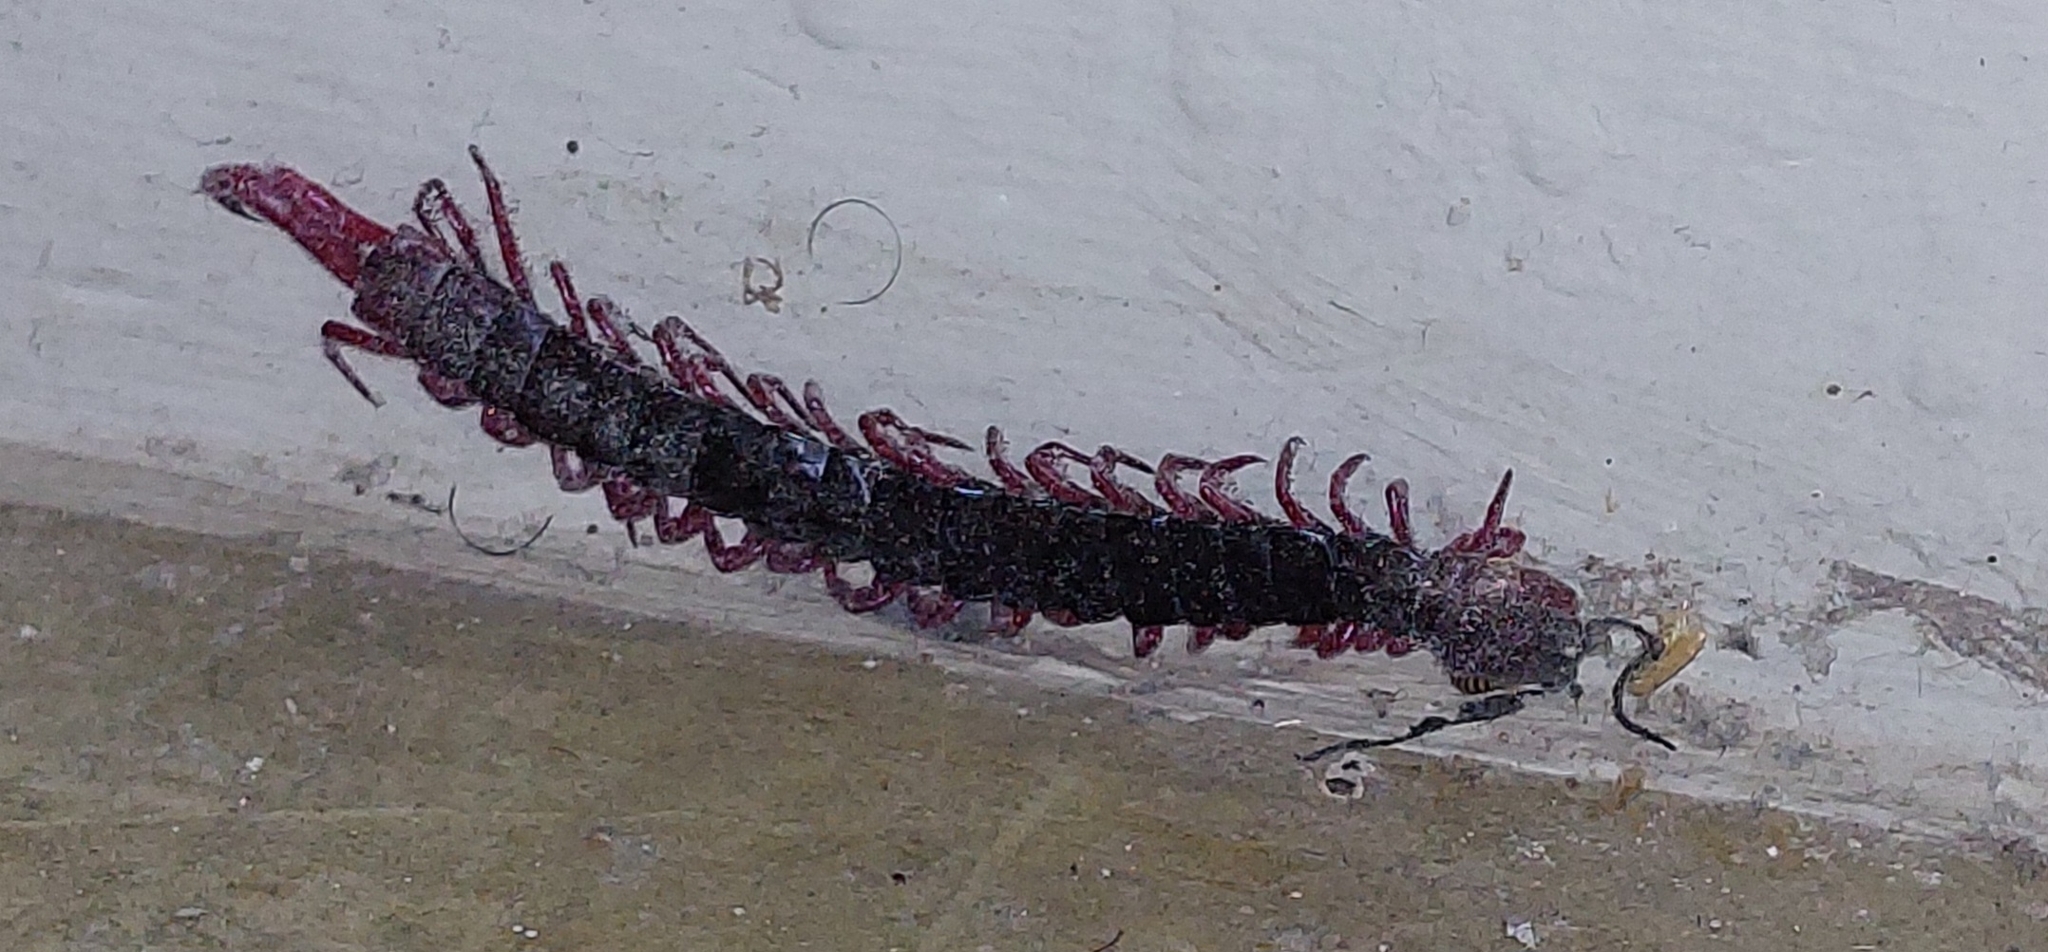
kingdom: Animalia
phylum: Arthropoda
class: Chilopoda
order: Scolopendromorpha
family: Scolopendridae
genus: Cormocephalus
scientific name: Cormocephalus nitidus
